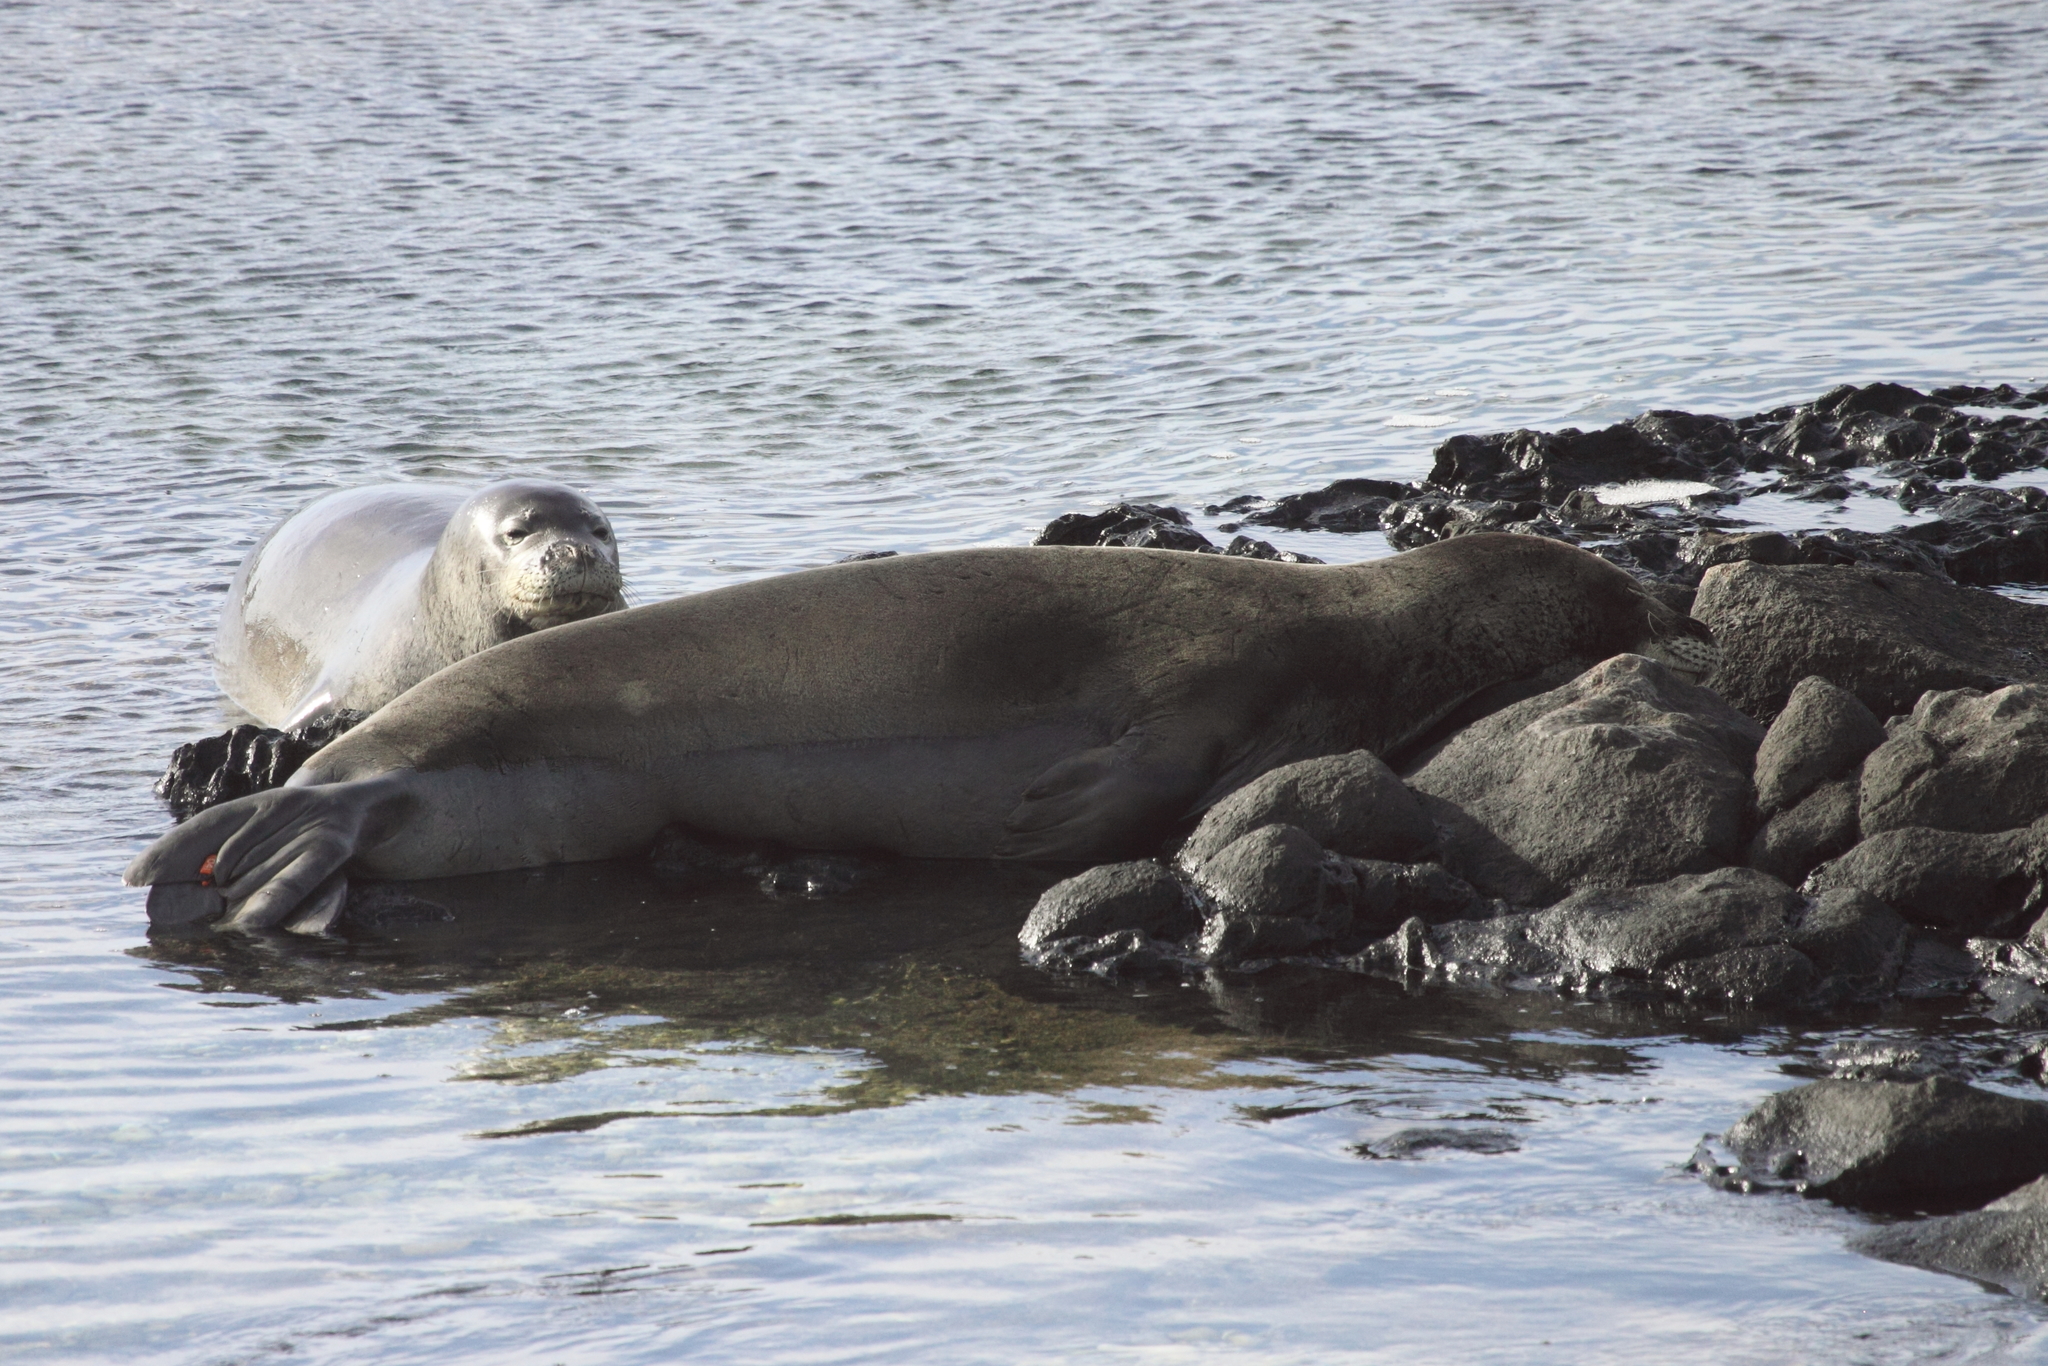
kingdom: Animalia
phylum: Chordata
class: Mammalia
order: Carnivora
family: Phocidae
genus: Neomonachus
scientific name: Neomonachus schauinslandi
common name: Hawaiian monk seal
